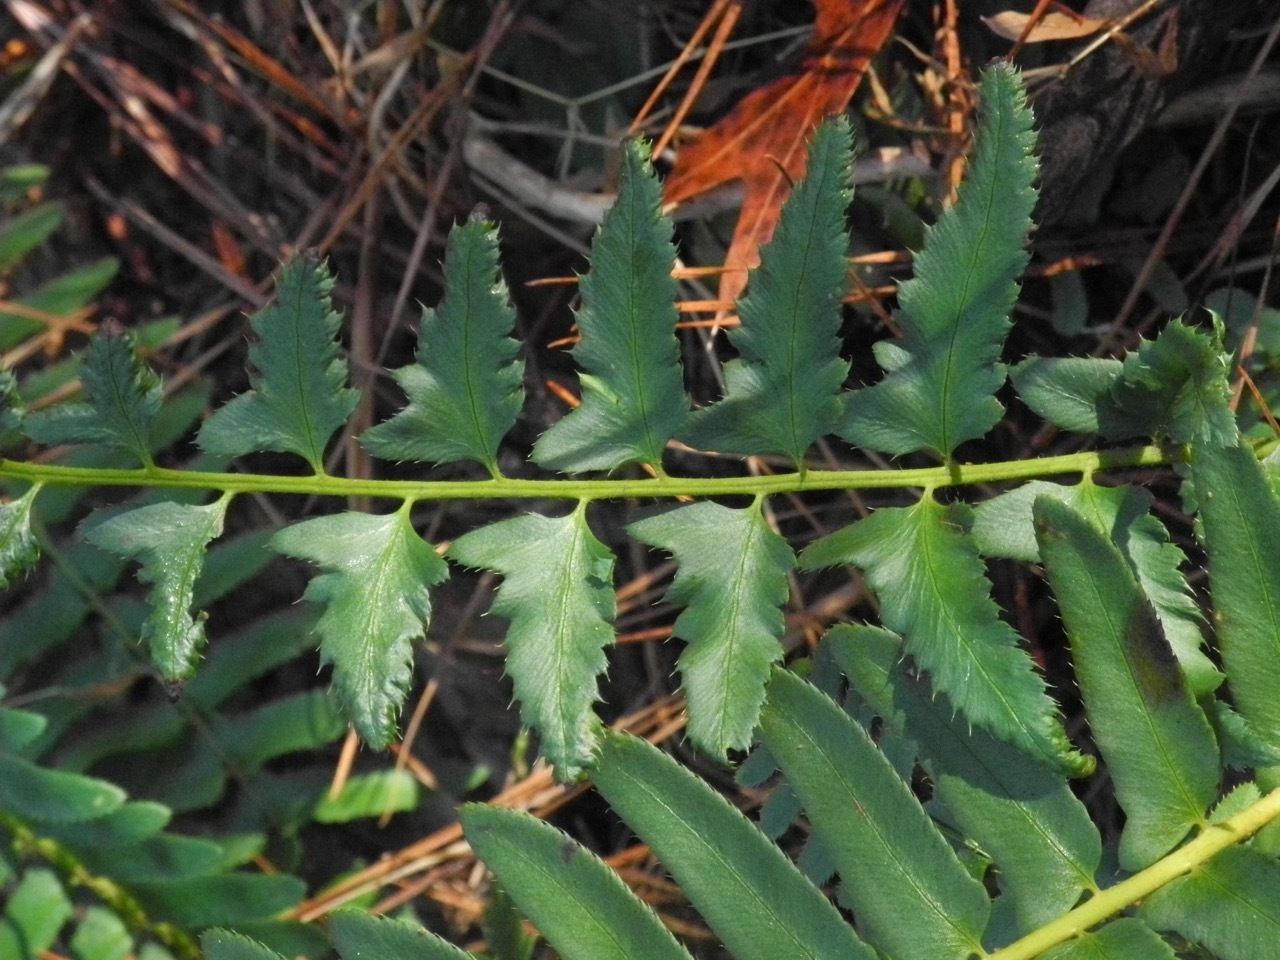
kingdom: Plantae
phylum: Tracheophyta
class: Polypodiopsida
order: Polypodiales
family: Dryopteridaceae
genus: Polystichum
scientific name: Polystichum acrostichoides
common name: Christmas fern
